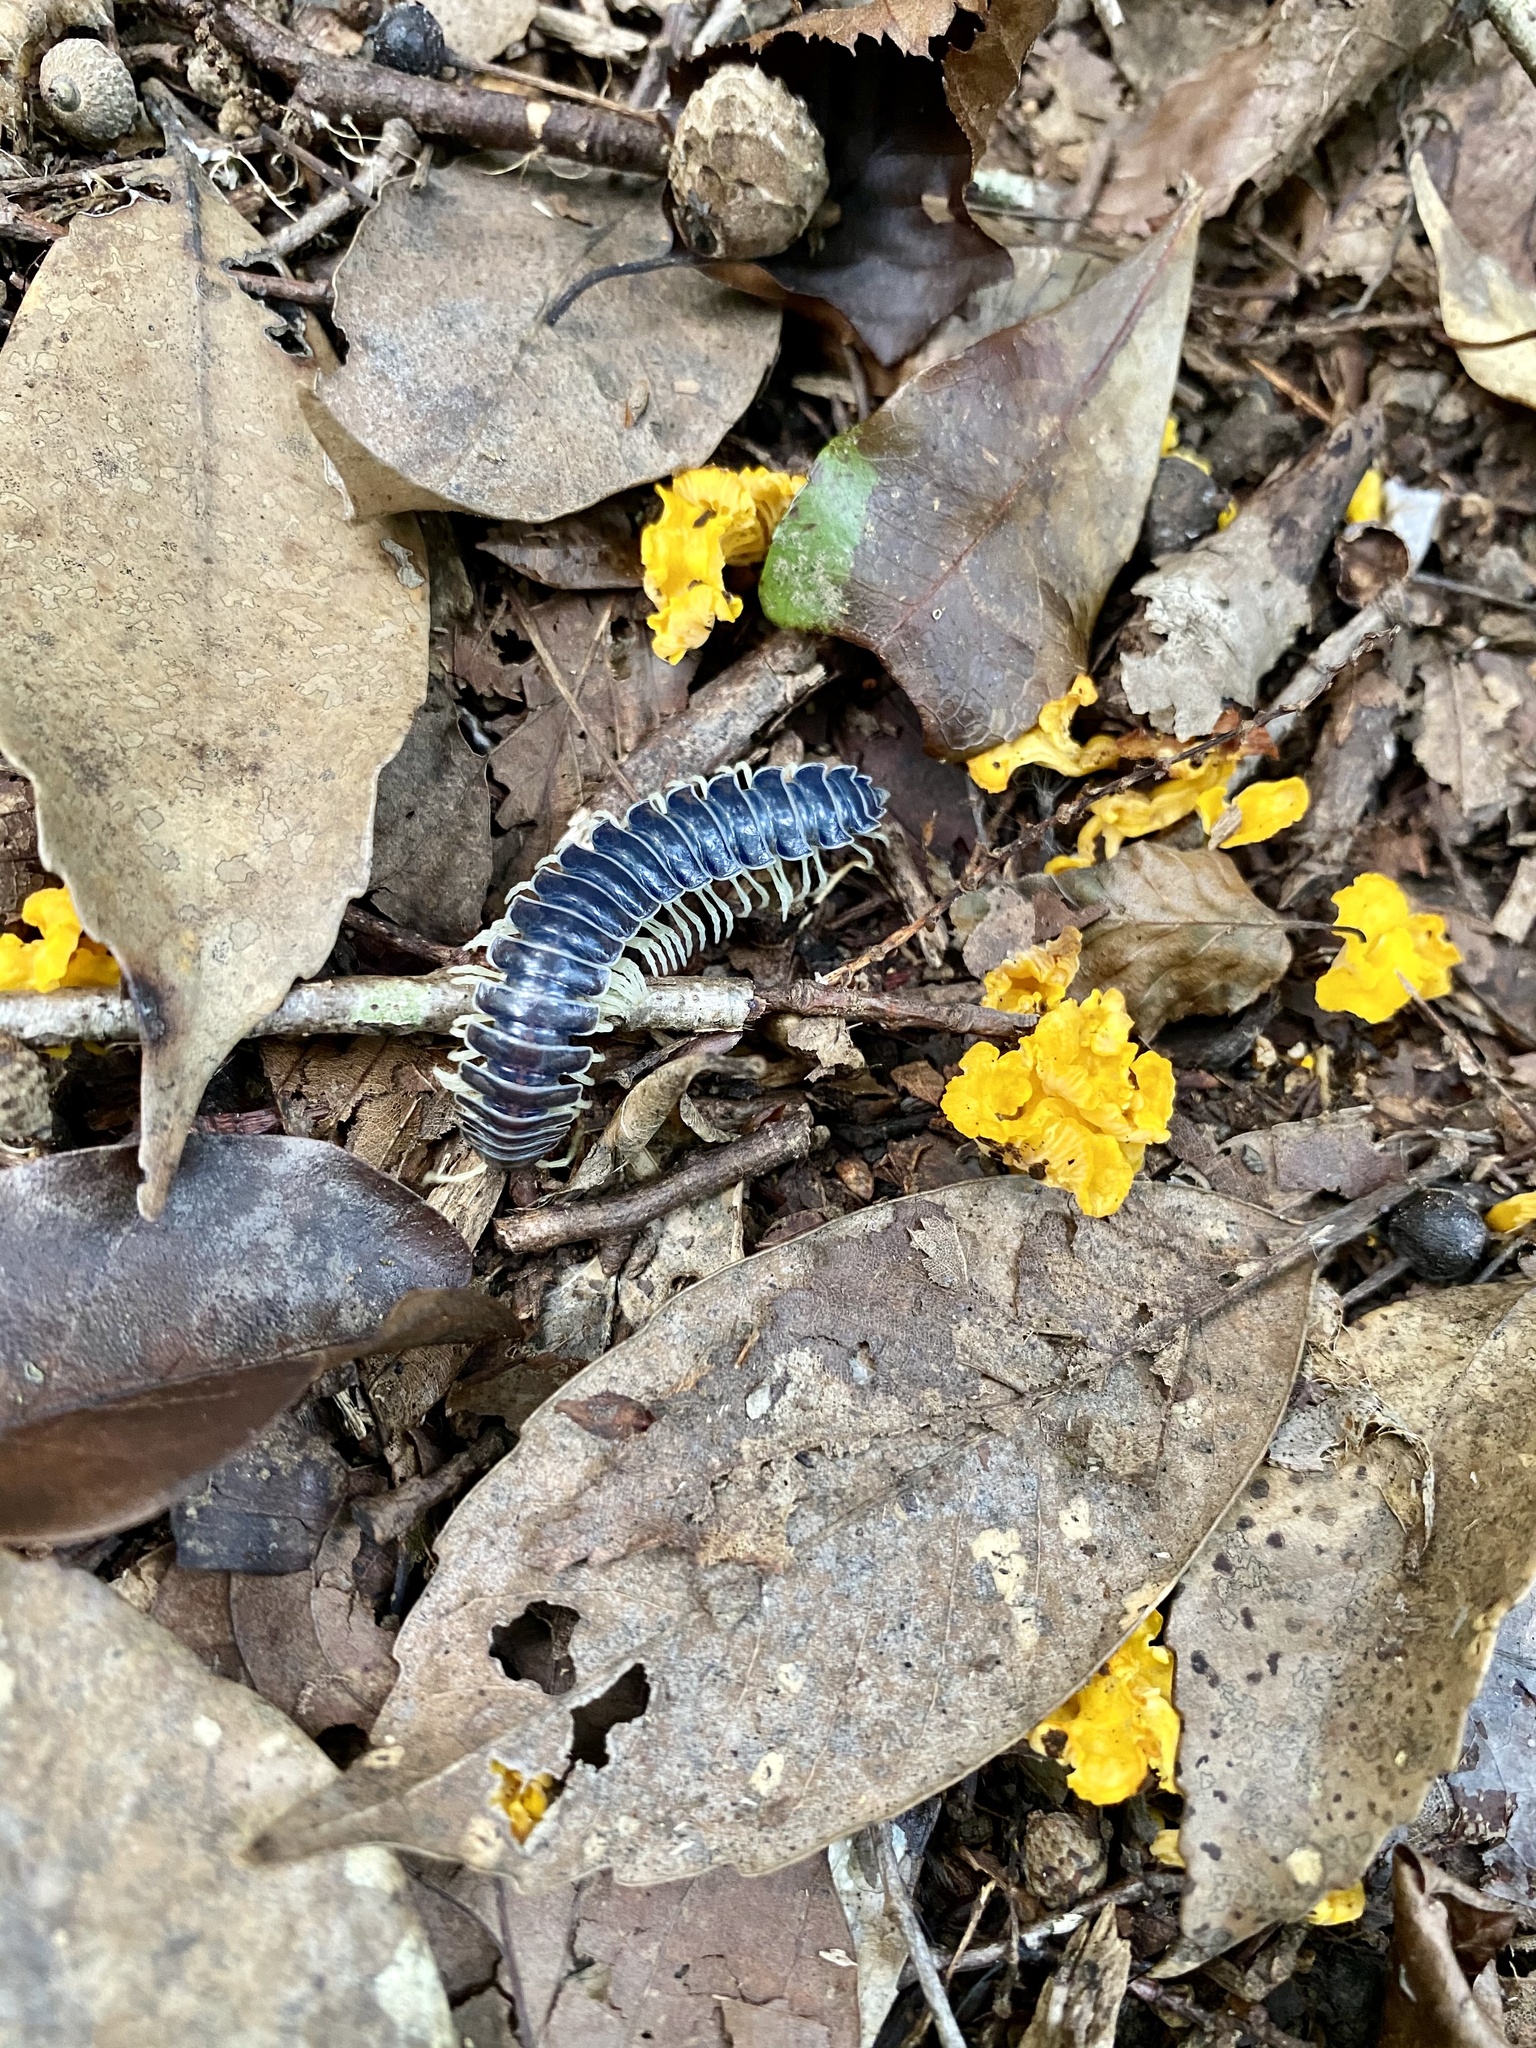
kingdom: Animalia
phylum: Arthropoda
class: Diplopoda
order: Polydesmida
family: Xystodesmidae
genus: Parafontaria
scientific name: Parafontaria tonominea
